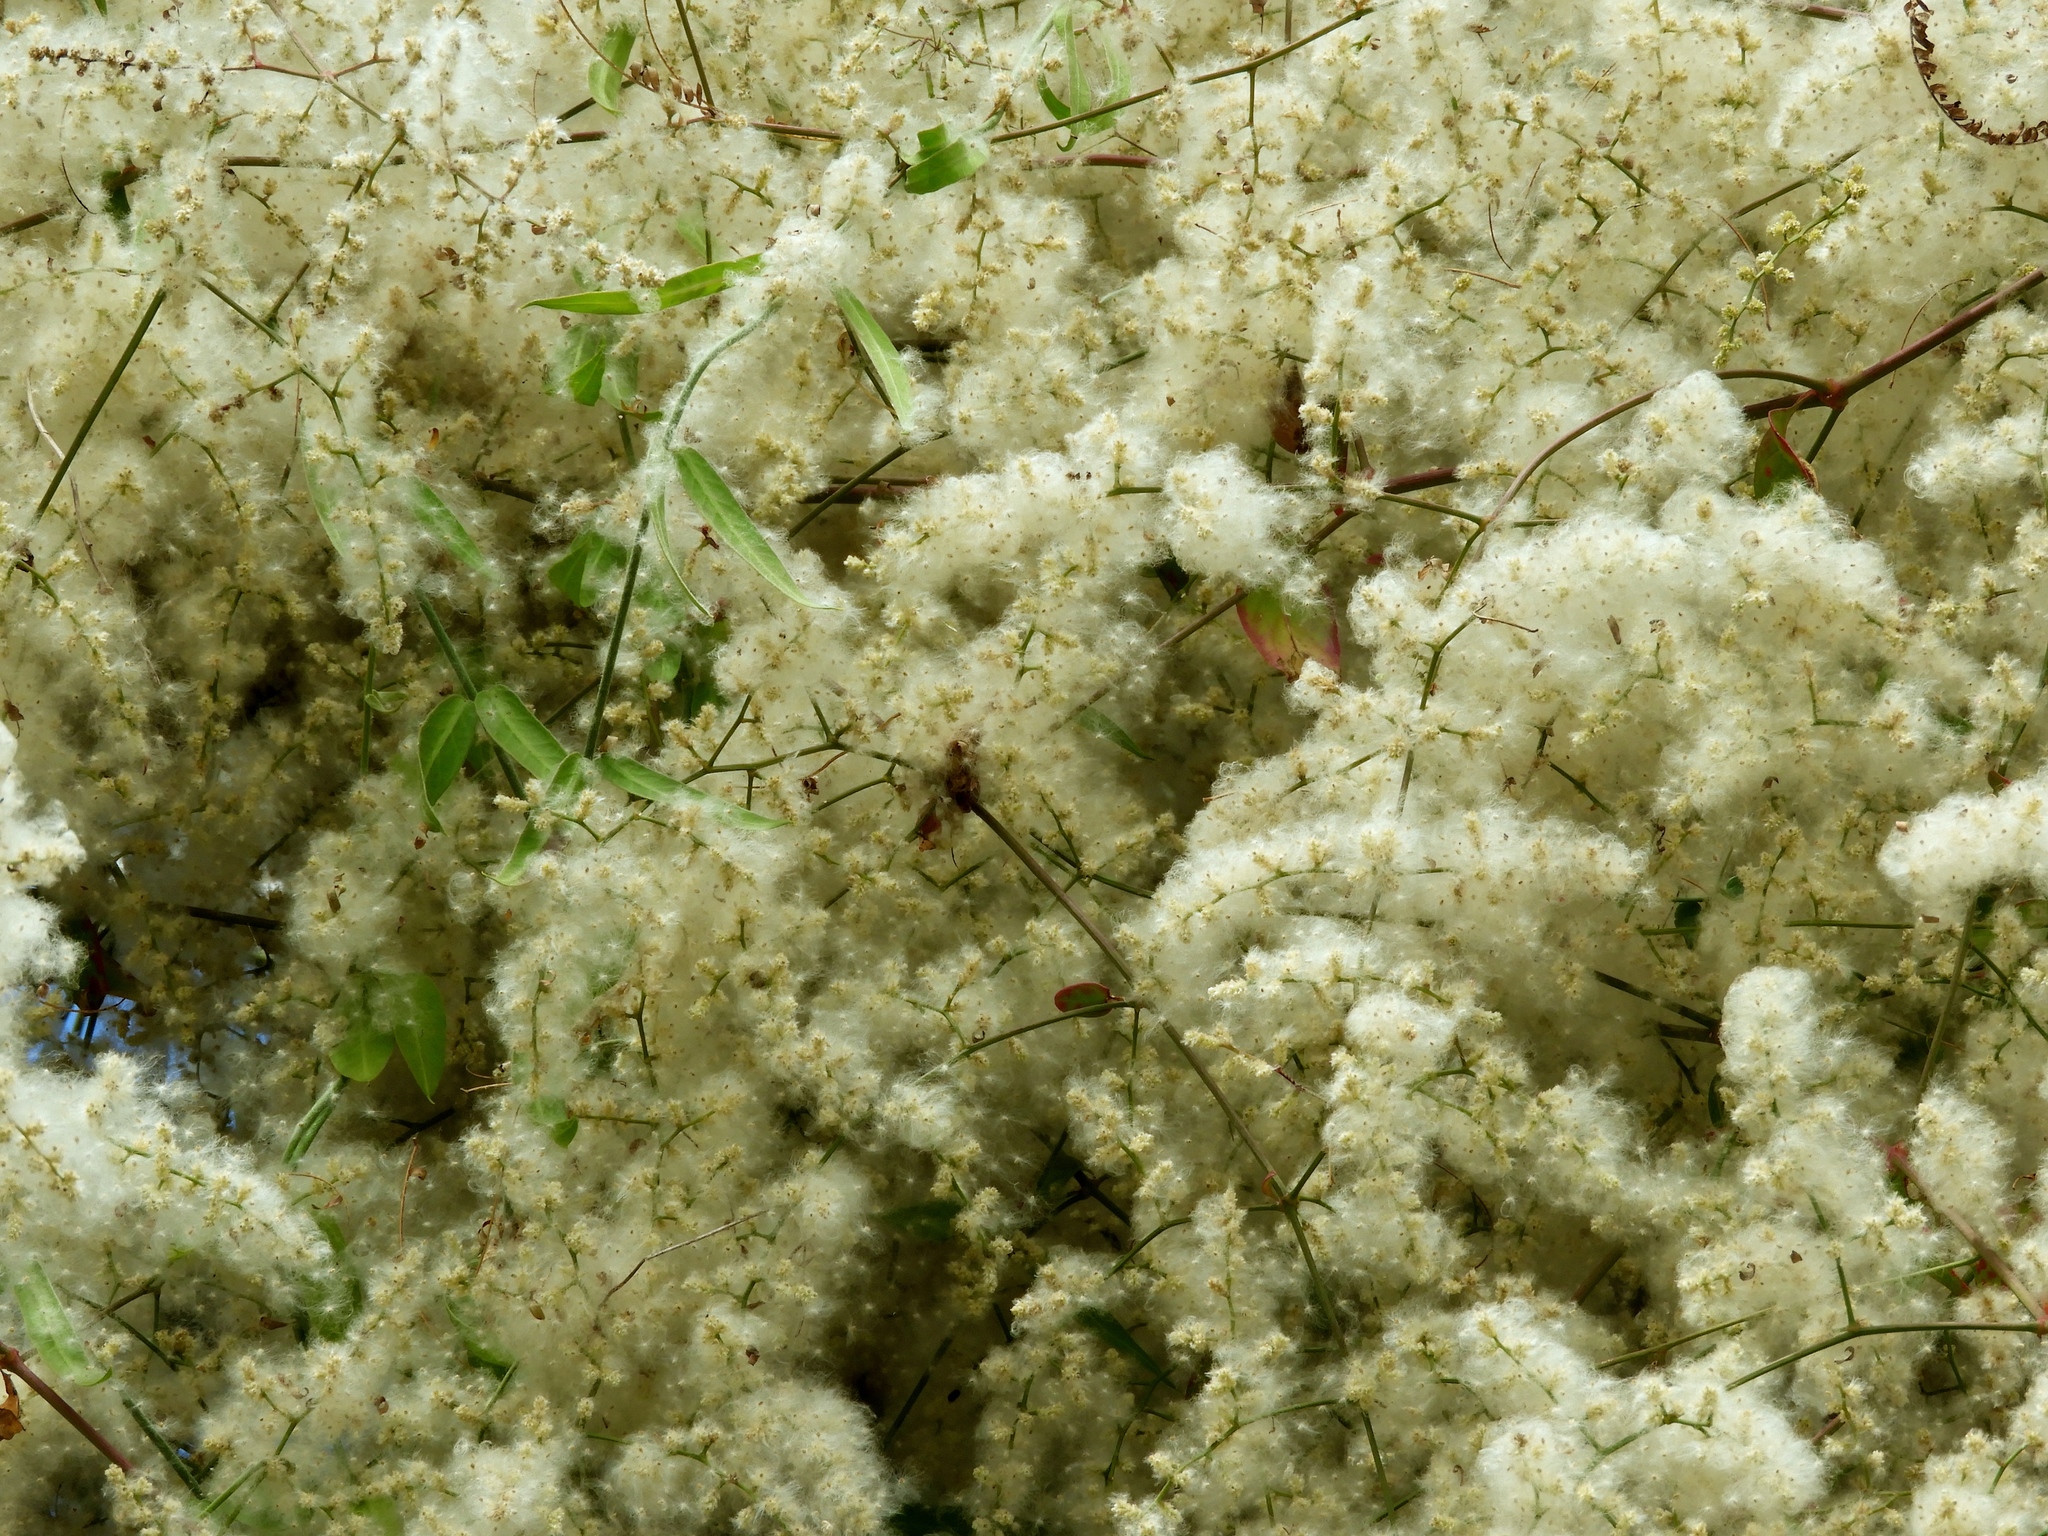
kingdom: Plantae
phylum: Tracheophyta
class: Magnoliopsida
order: Caryophyllales
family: Amaranthaceae
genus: Iresine
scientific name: Iresine diffusa
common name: Juba's-bush
